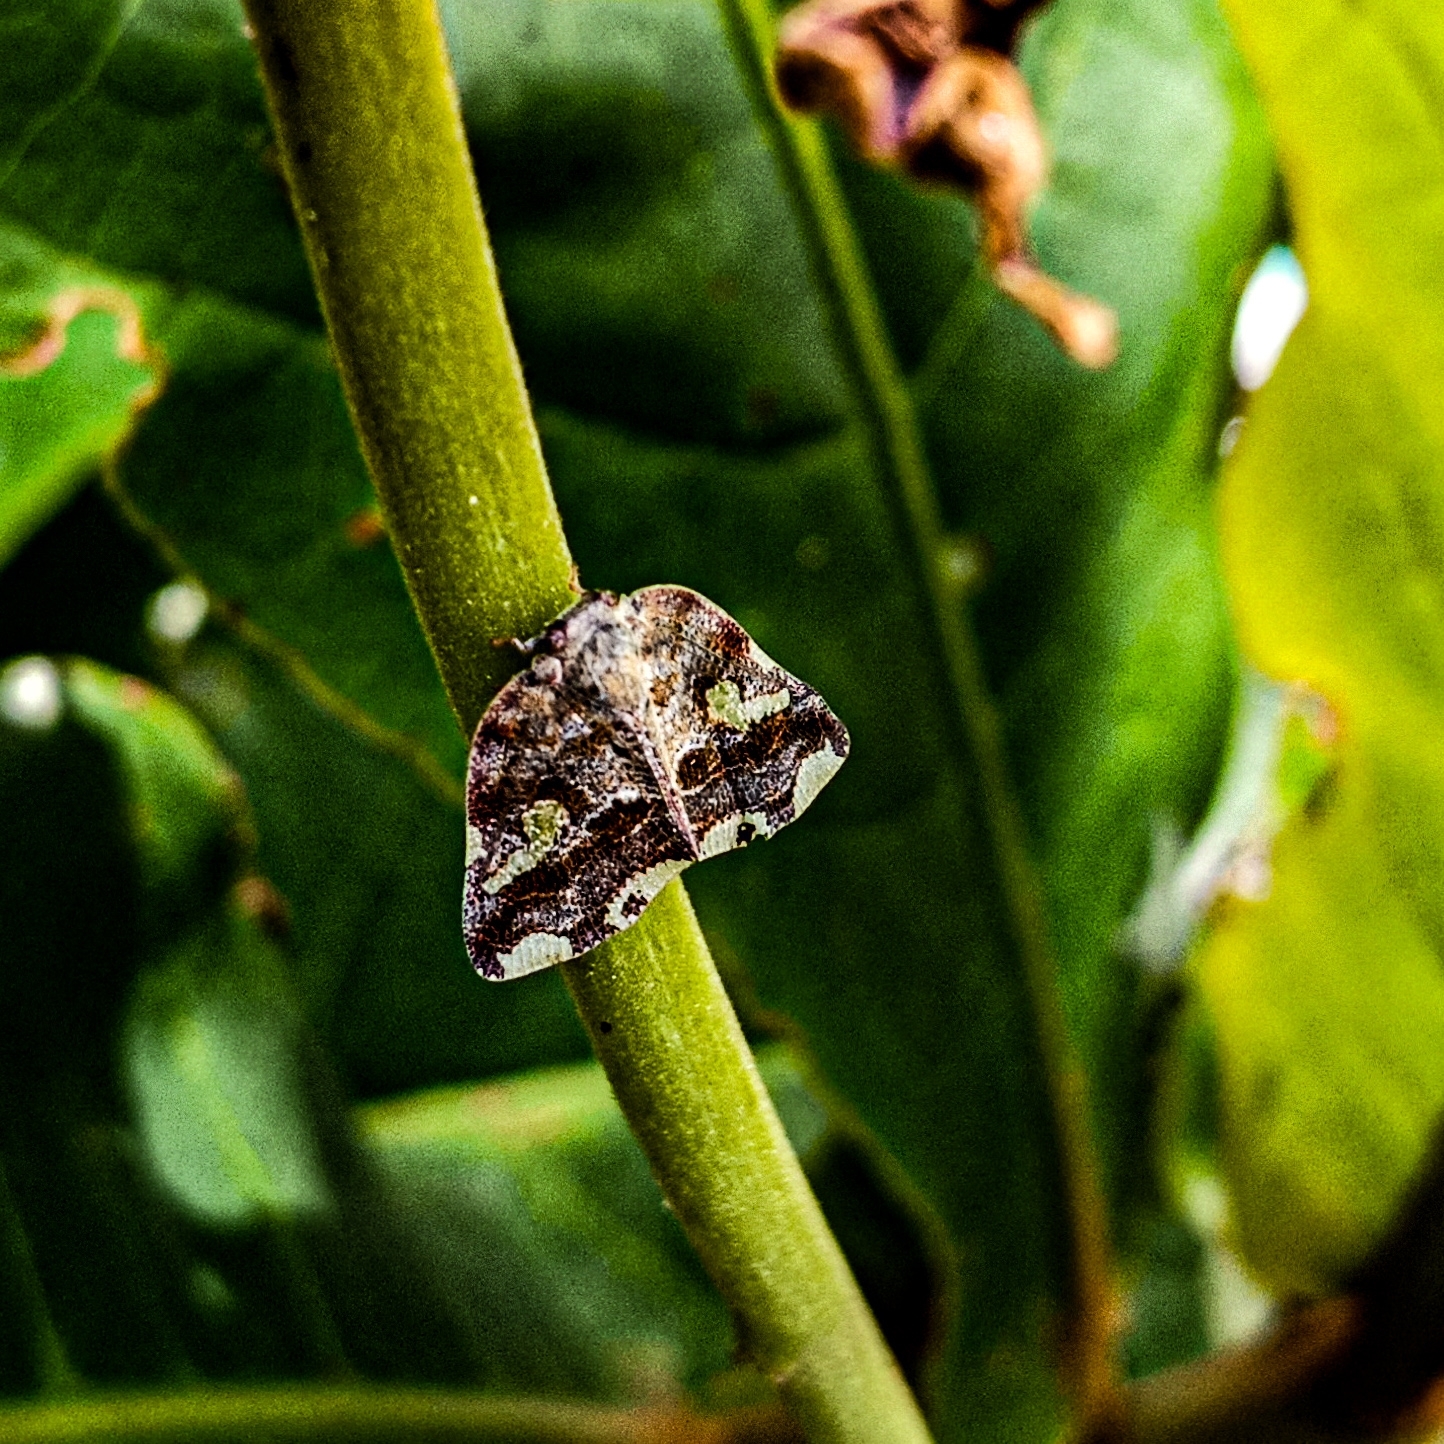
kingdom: Animalia
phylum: Arthropoda
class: Insecta
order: Hemiptera
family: Ricaniidae
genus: Ricania
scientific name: Ricania speculum
